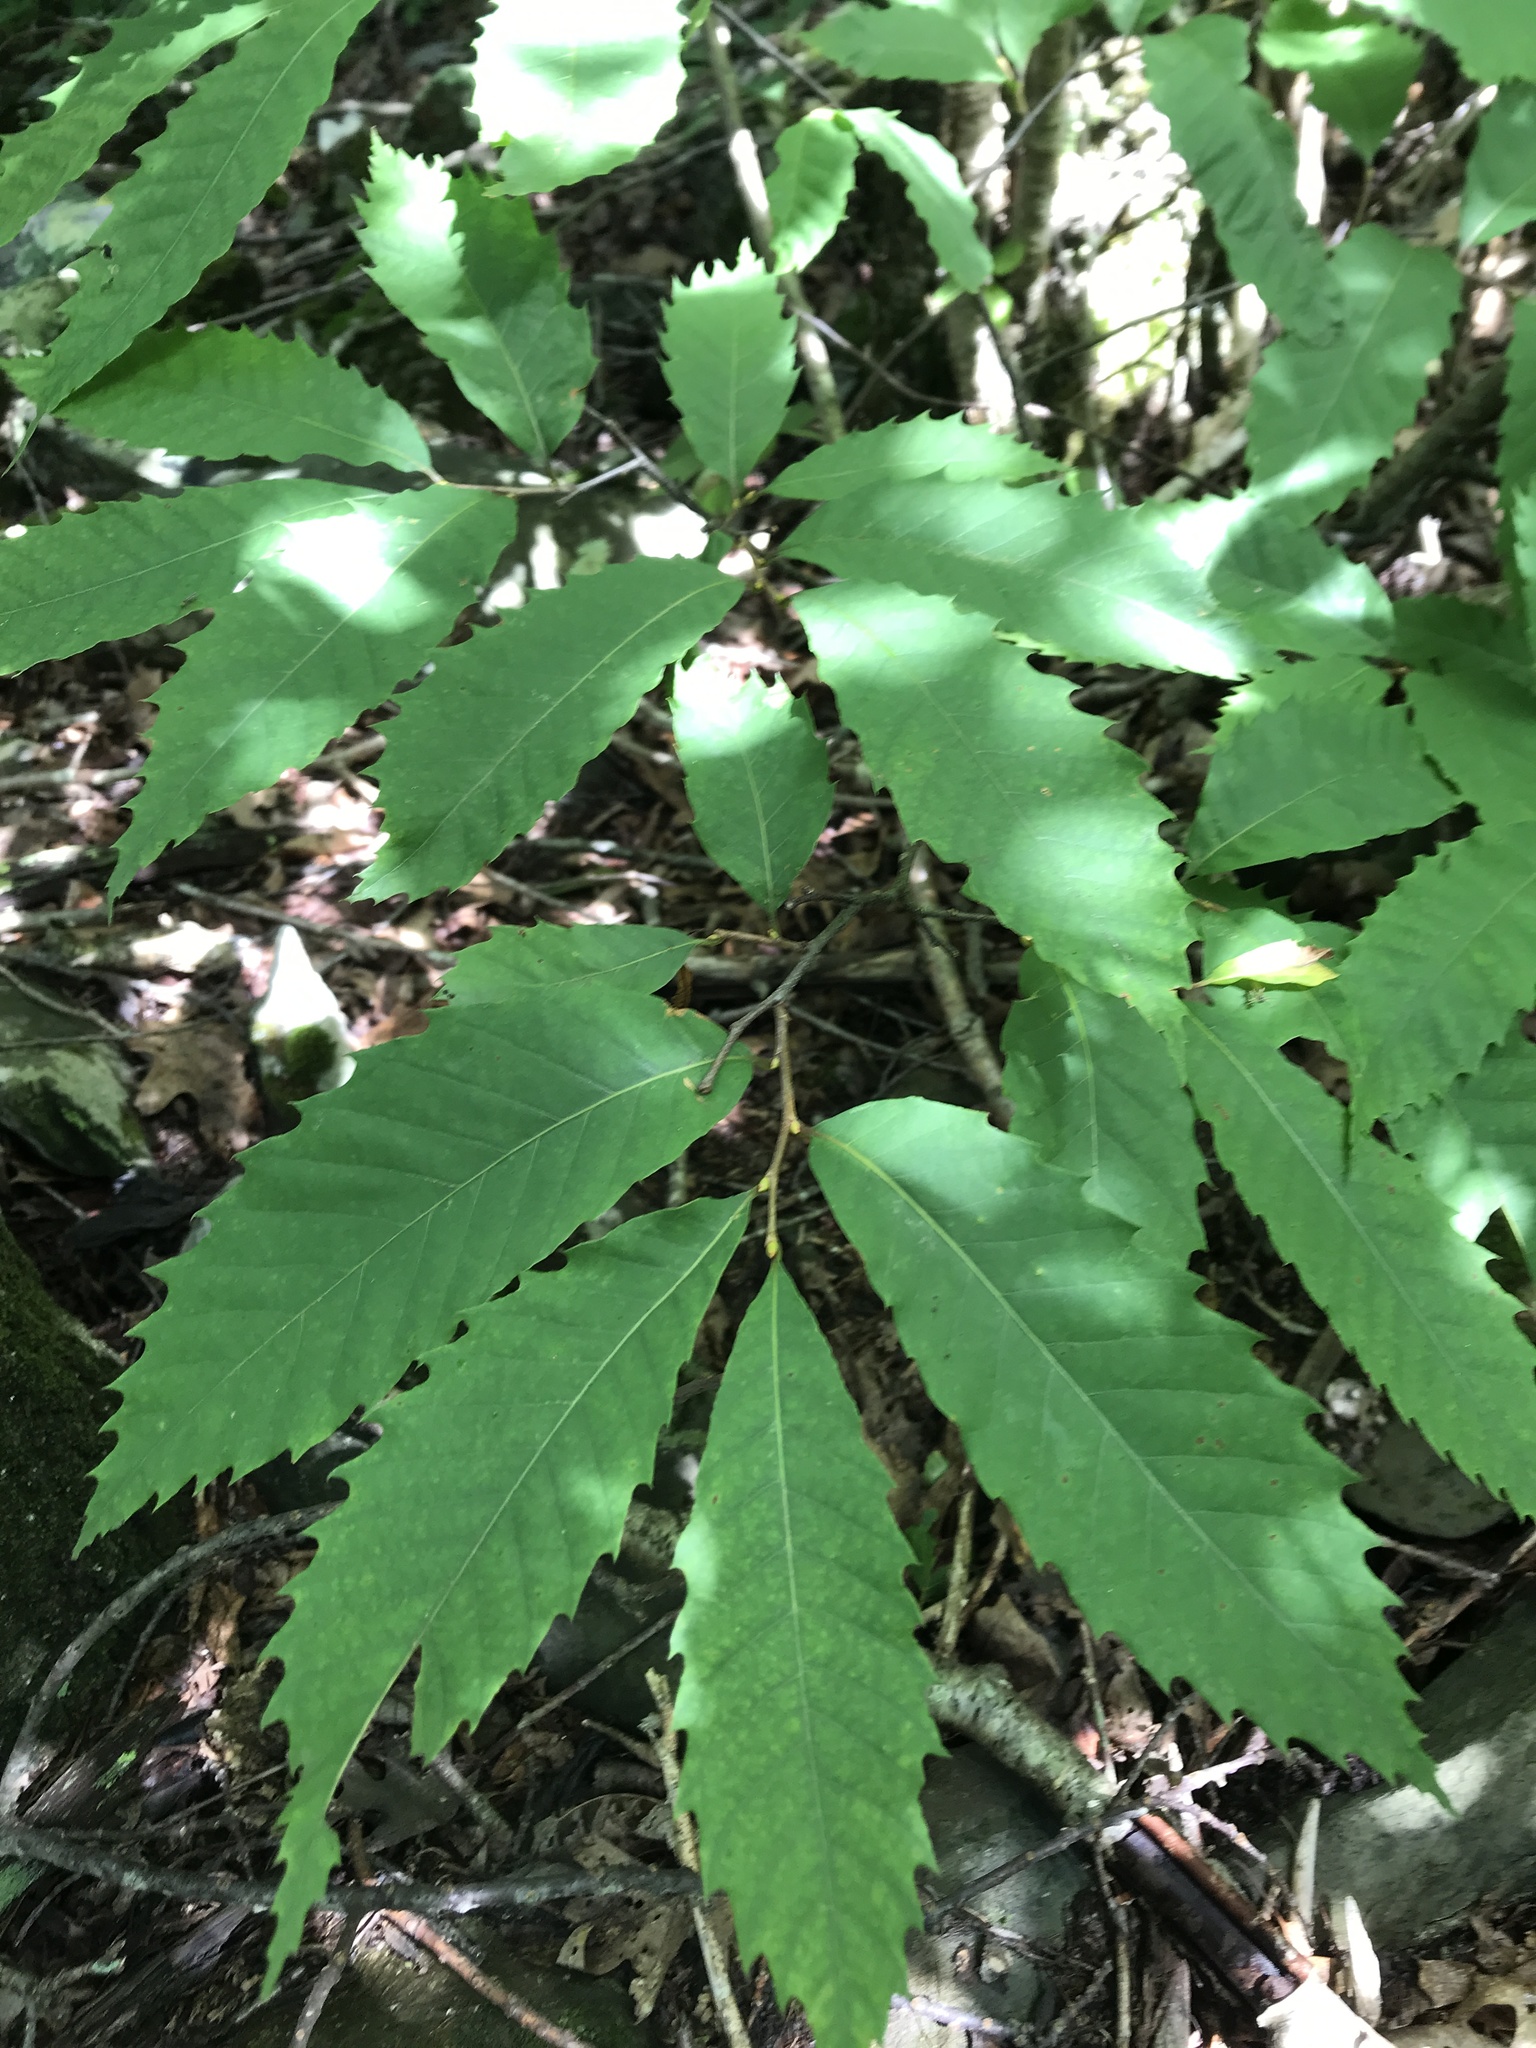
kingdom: Plantae
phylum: Tracheophyta
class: Magnoliopsida
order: Fagales
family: Fagaceae
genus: Castanea
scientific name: Castanea dentata
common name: American chestnut
